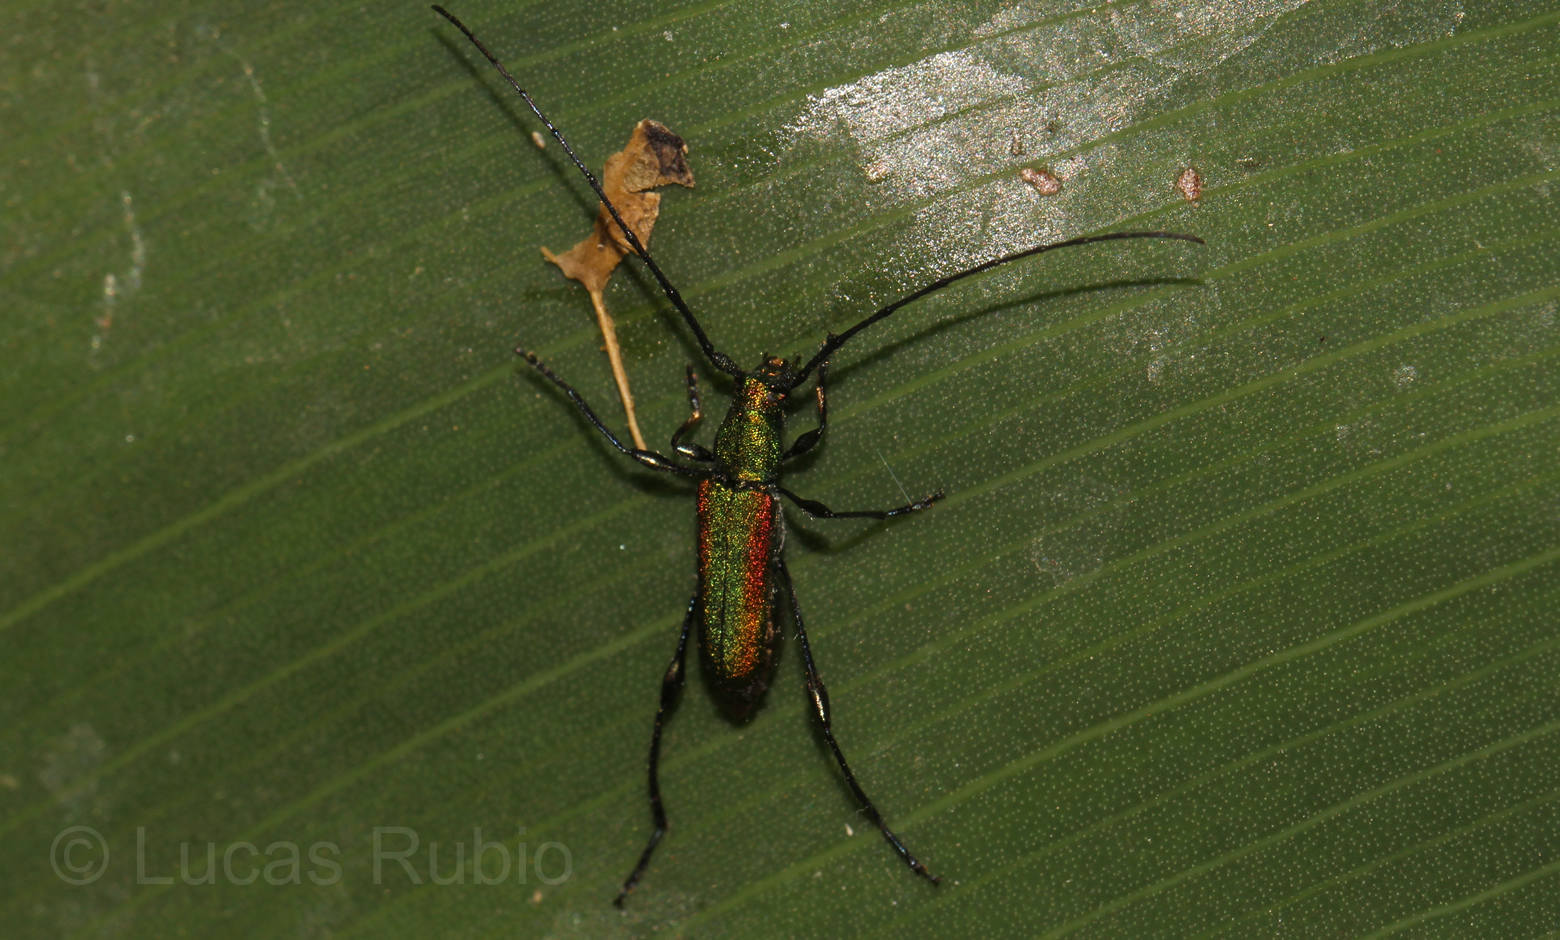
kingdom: Animalia
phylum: Arthropoda
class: Insecta
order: Coleoptera
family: Cerambycidae
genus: Ischionodonta
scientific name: Ischionodonta iridipennis
